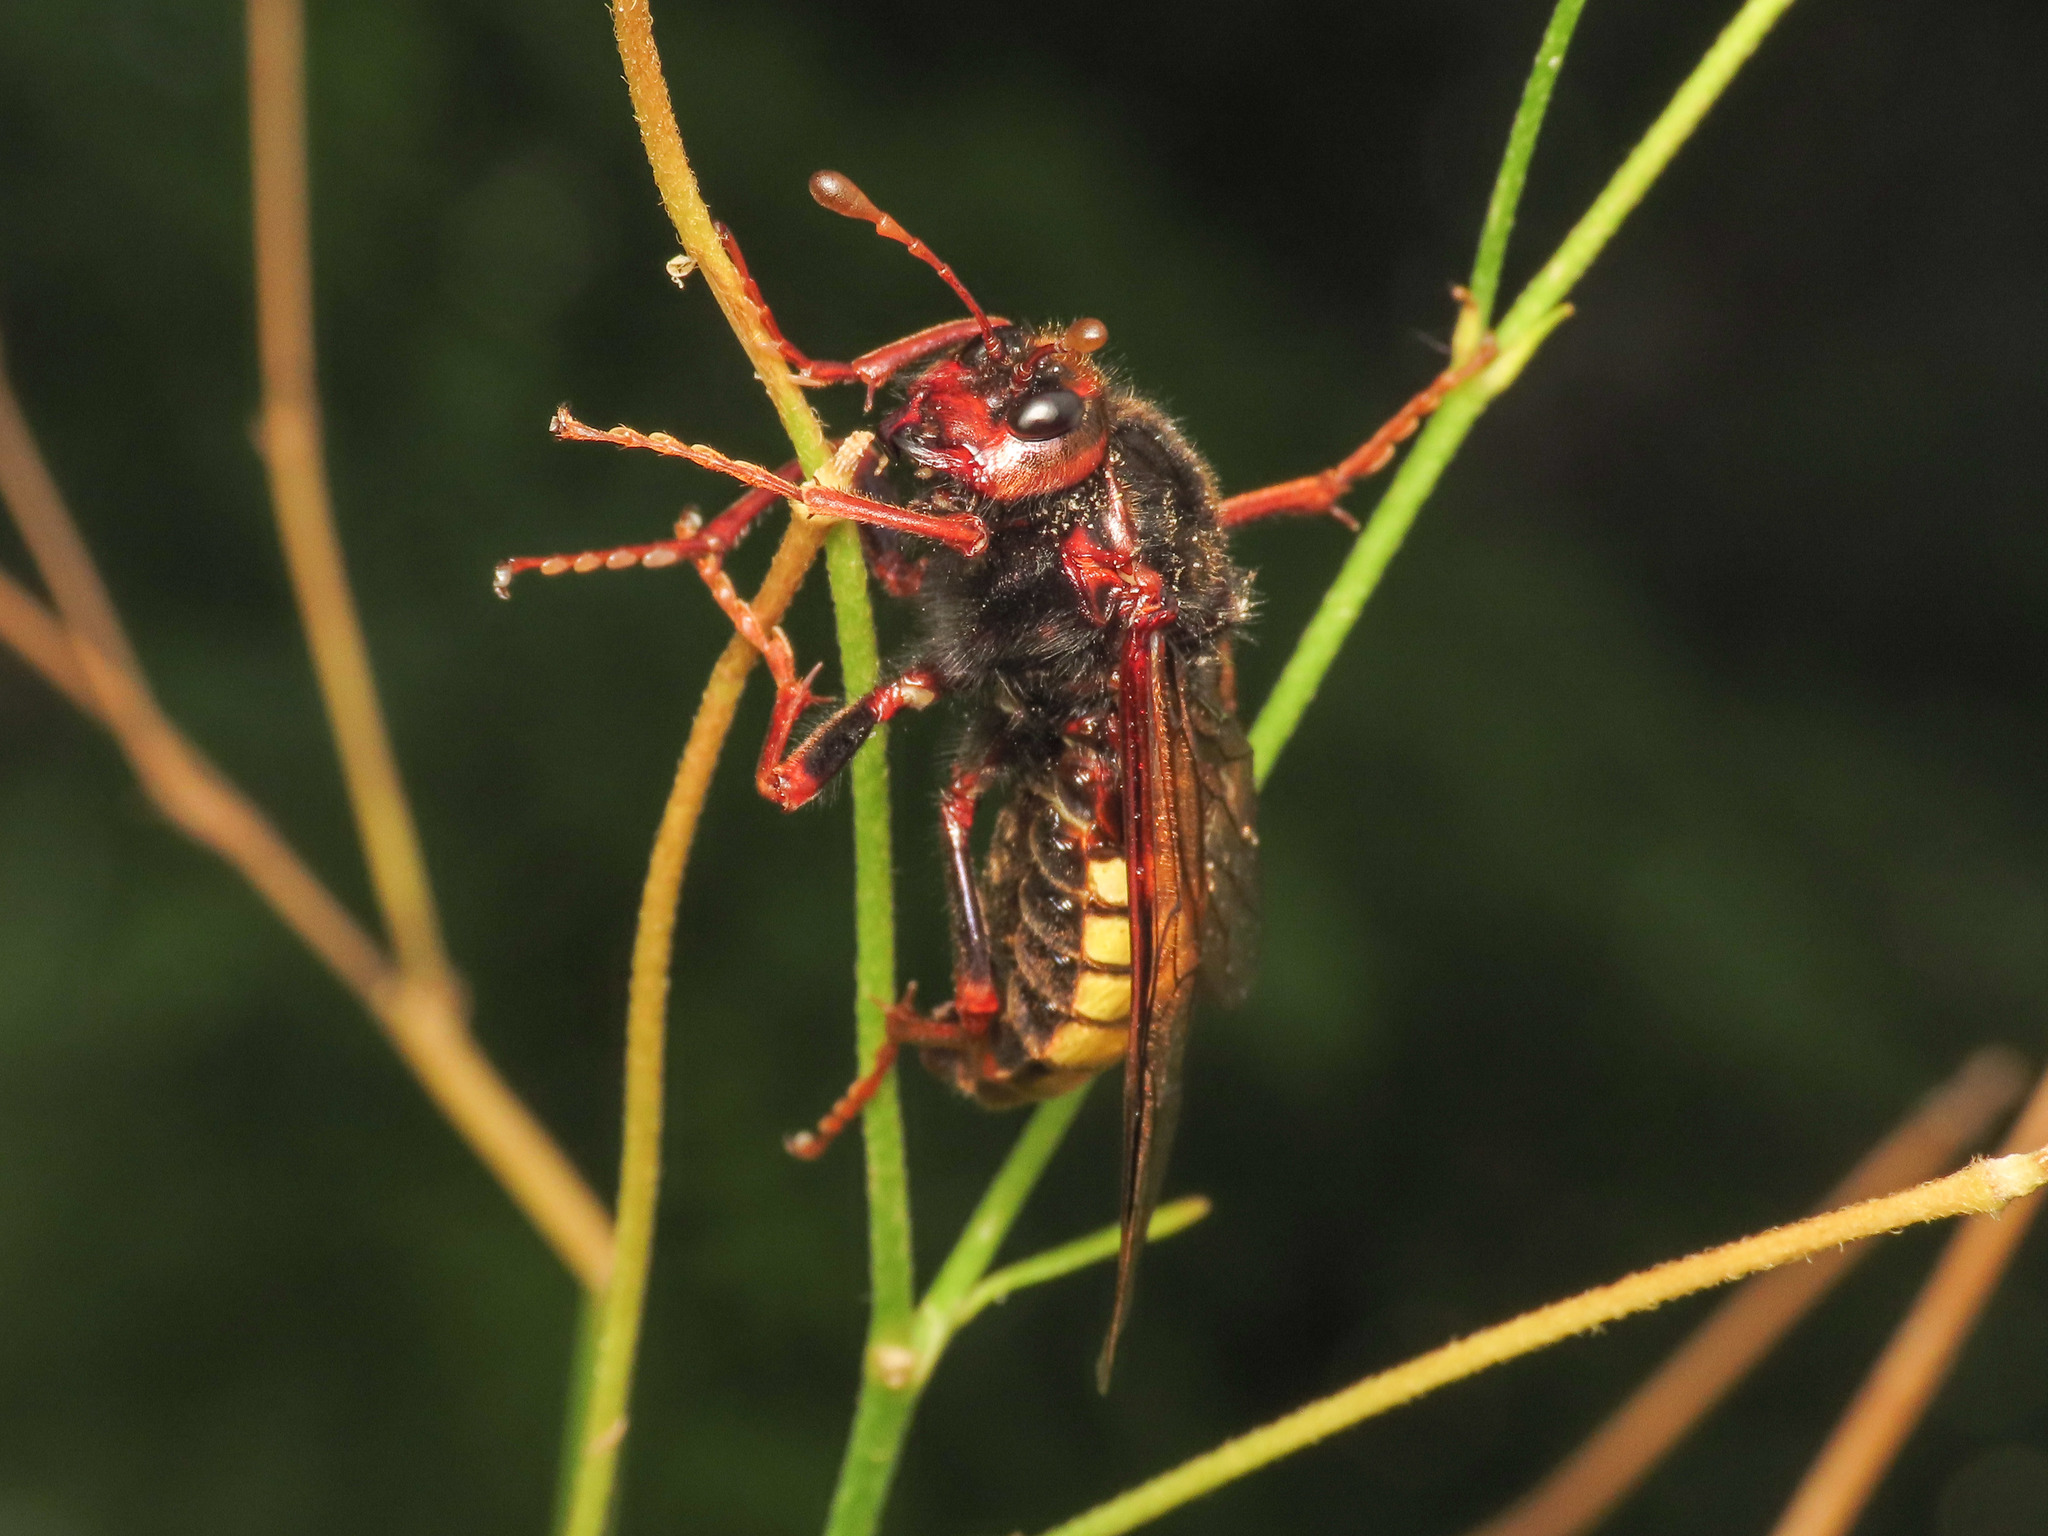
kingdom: Animalia
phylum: Arthropoda
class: Insecta
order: Hymenoptera
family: Cimbicidae
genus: Cimbex
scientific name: Cimbex connatus
